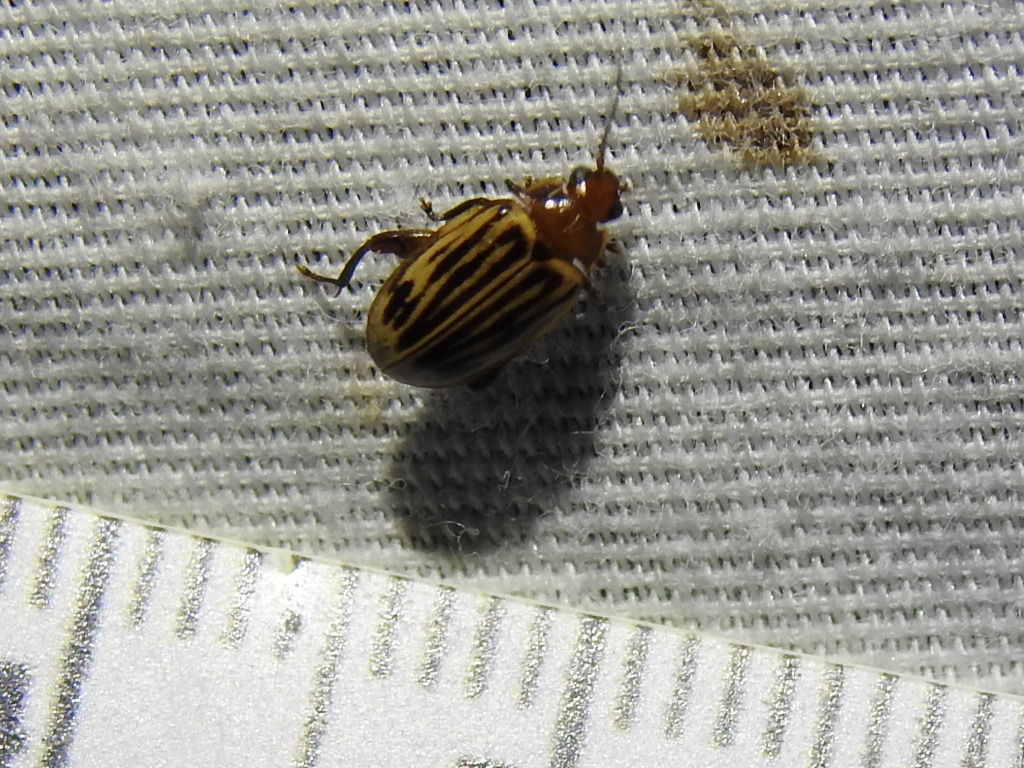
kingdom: Animalia
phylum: Arthropoda
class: Insecta
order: Coleoptera
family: Scirtidae
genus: Ora
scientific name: Ora troberti
